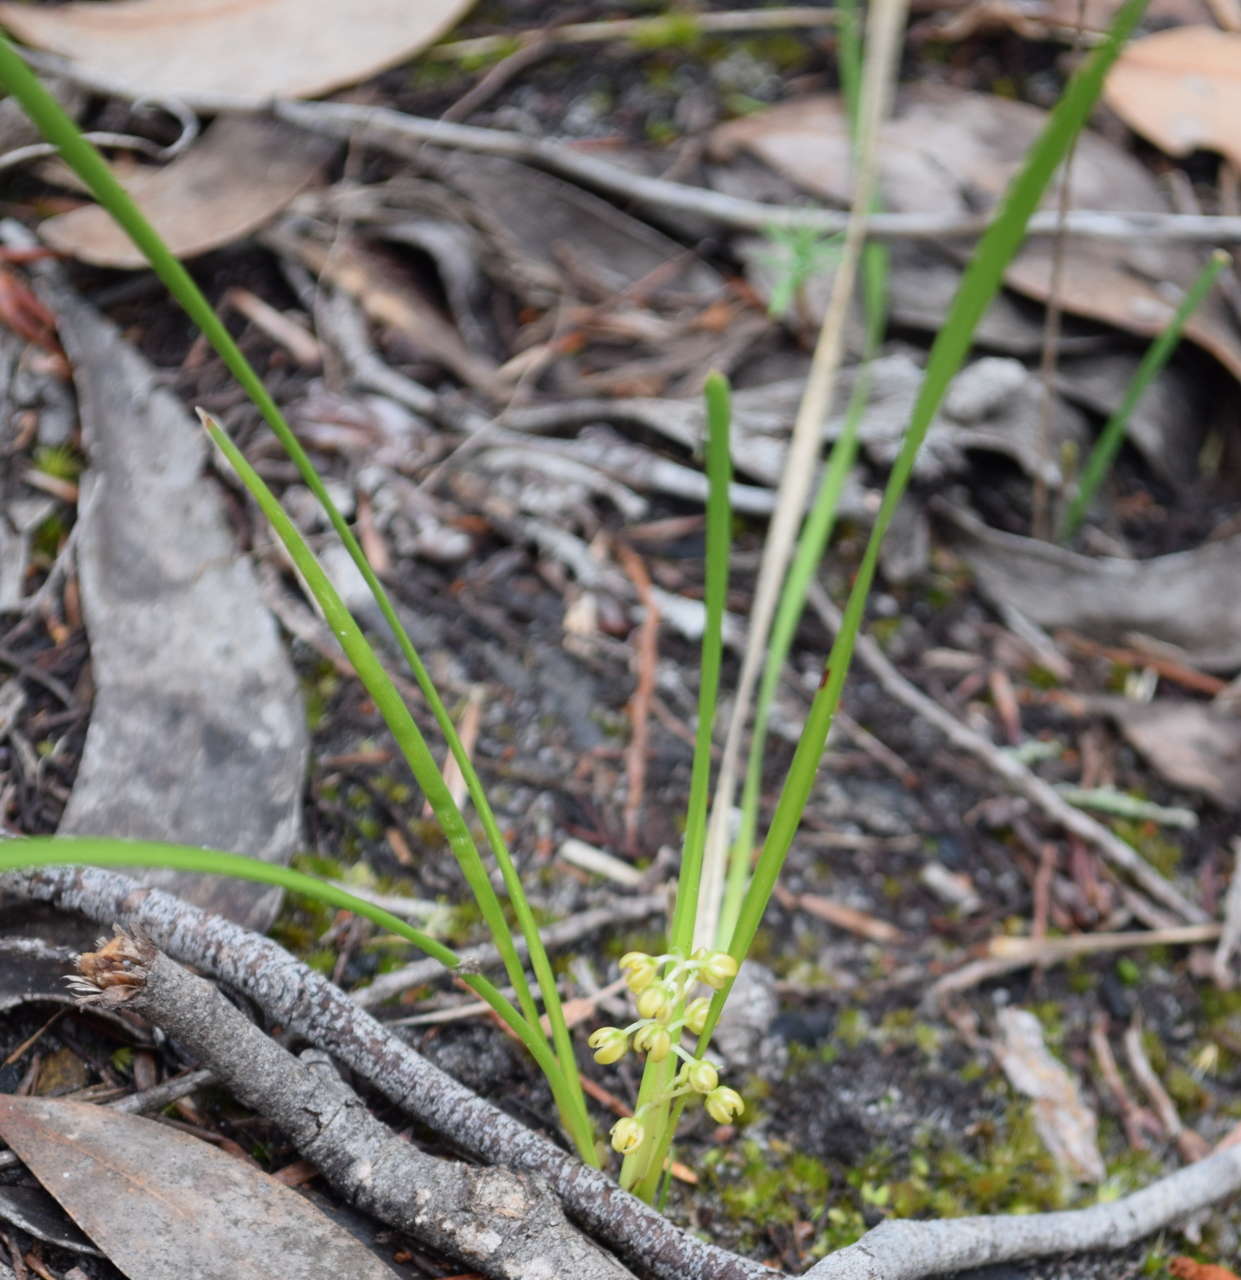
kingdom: Plantae
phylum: Tracheophyta
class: Liliopsida
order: Asparagales
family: Asparagaceae
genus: Lomandra
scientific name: Lomandra filiformis
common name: Wattle mat-rush
